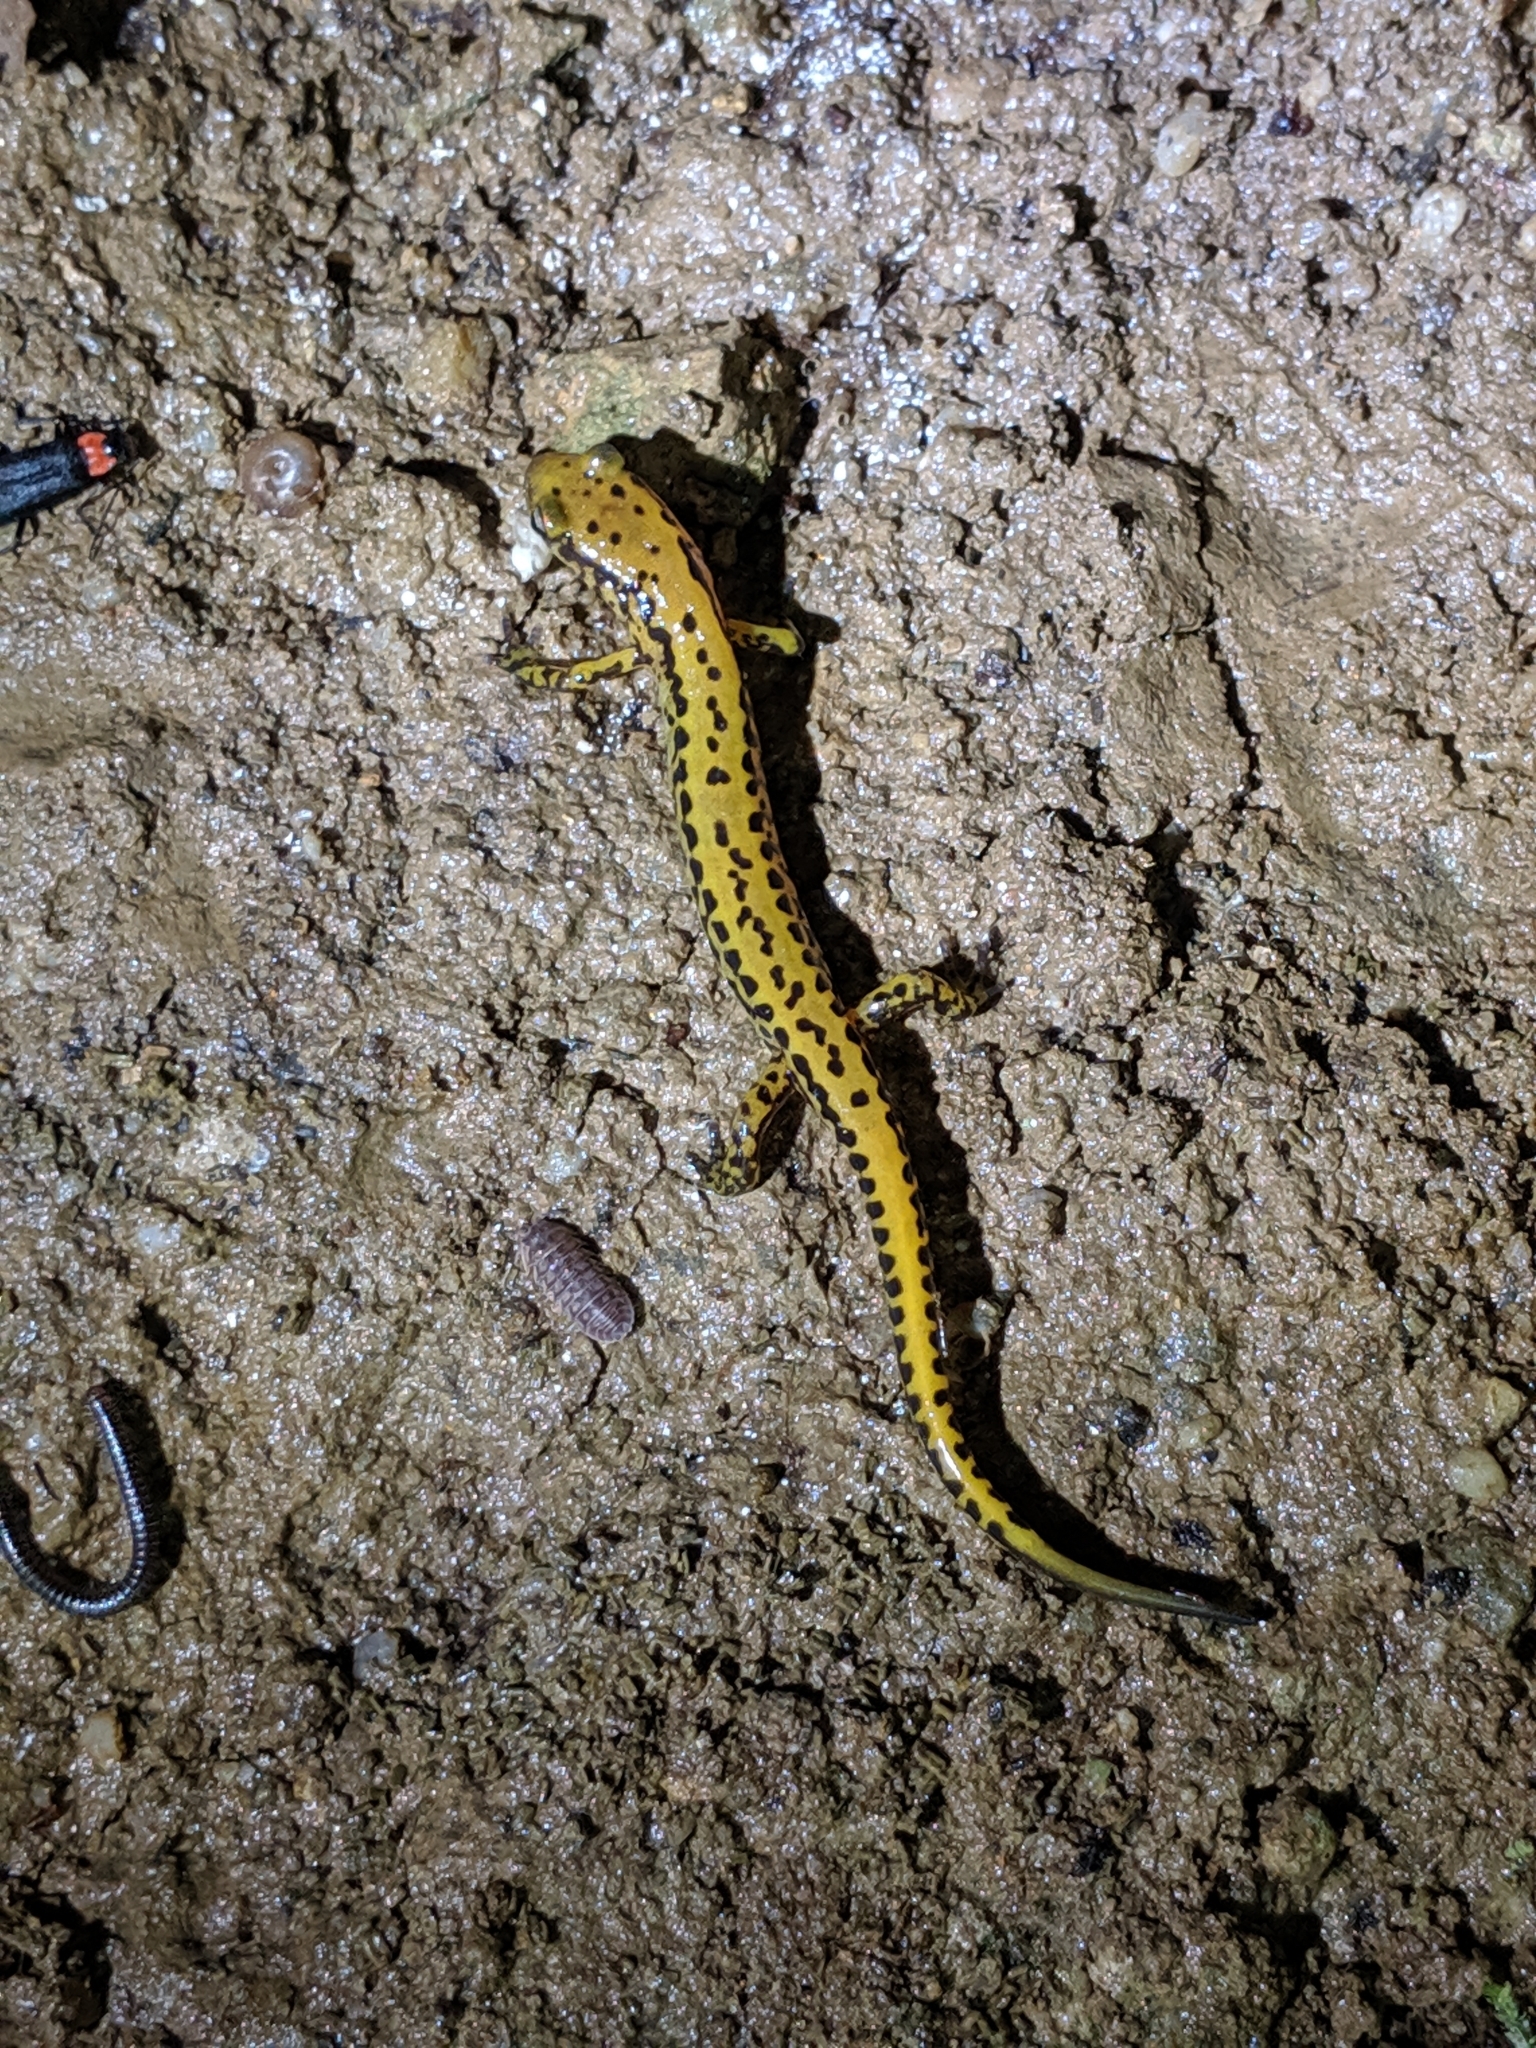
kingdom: Animalia
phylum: Chordata
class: Amphibia
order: Caudata
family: Plethodontidae
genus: Eurycea
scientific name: Eurycea longicauda
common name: Long-tailed salamander
